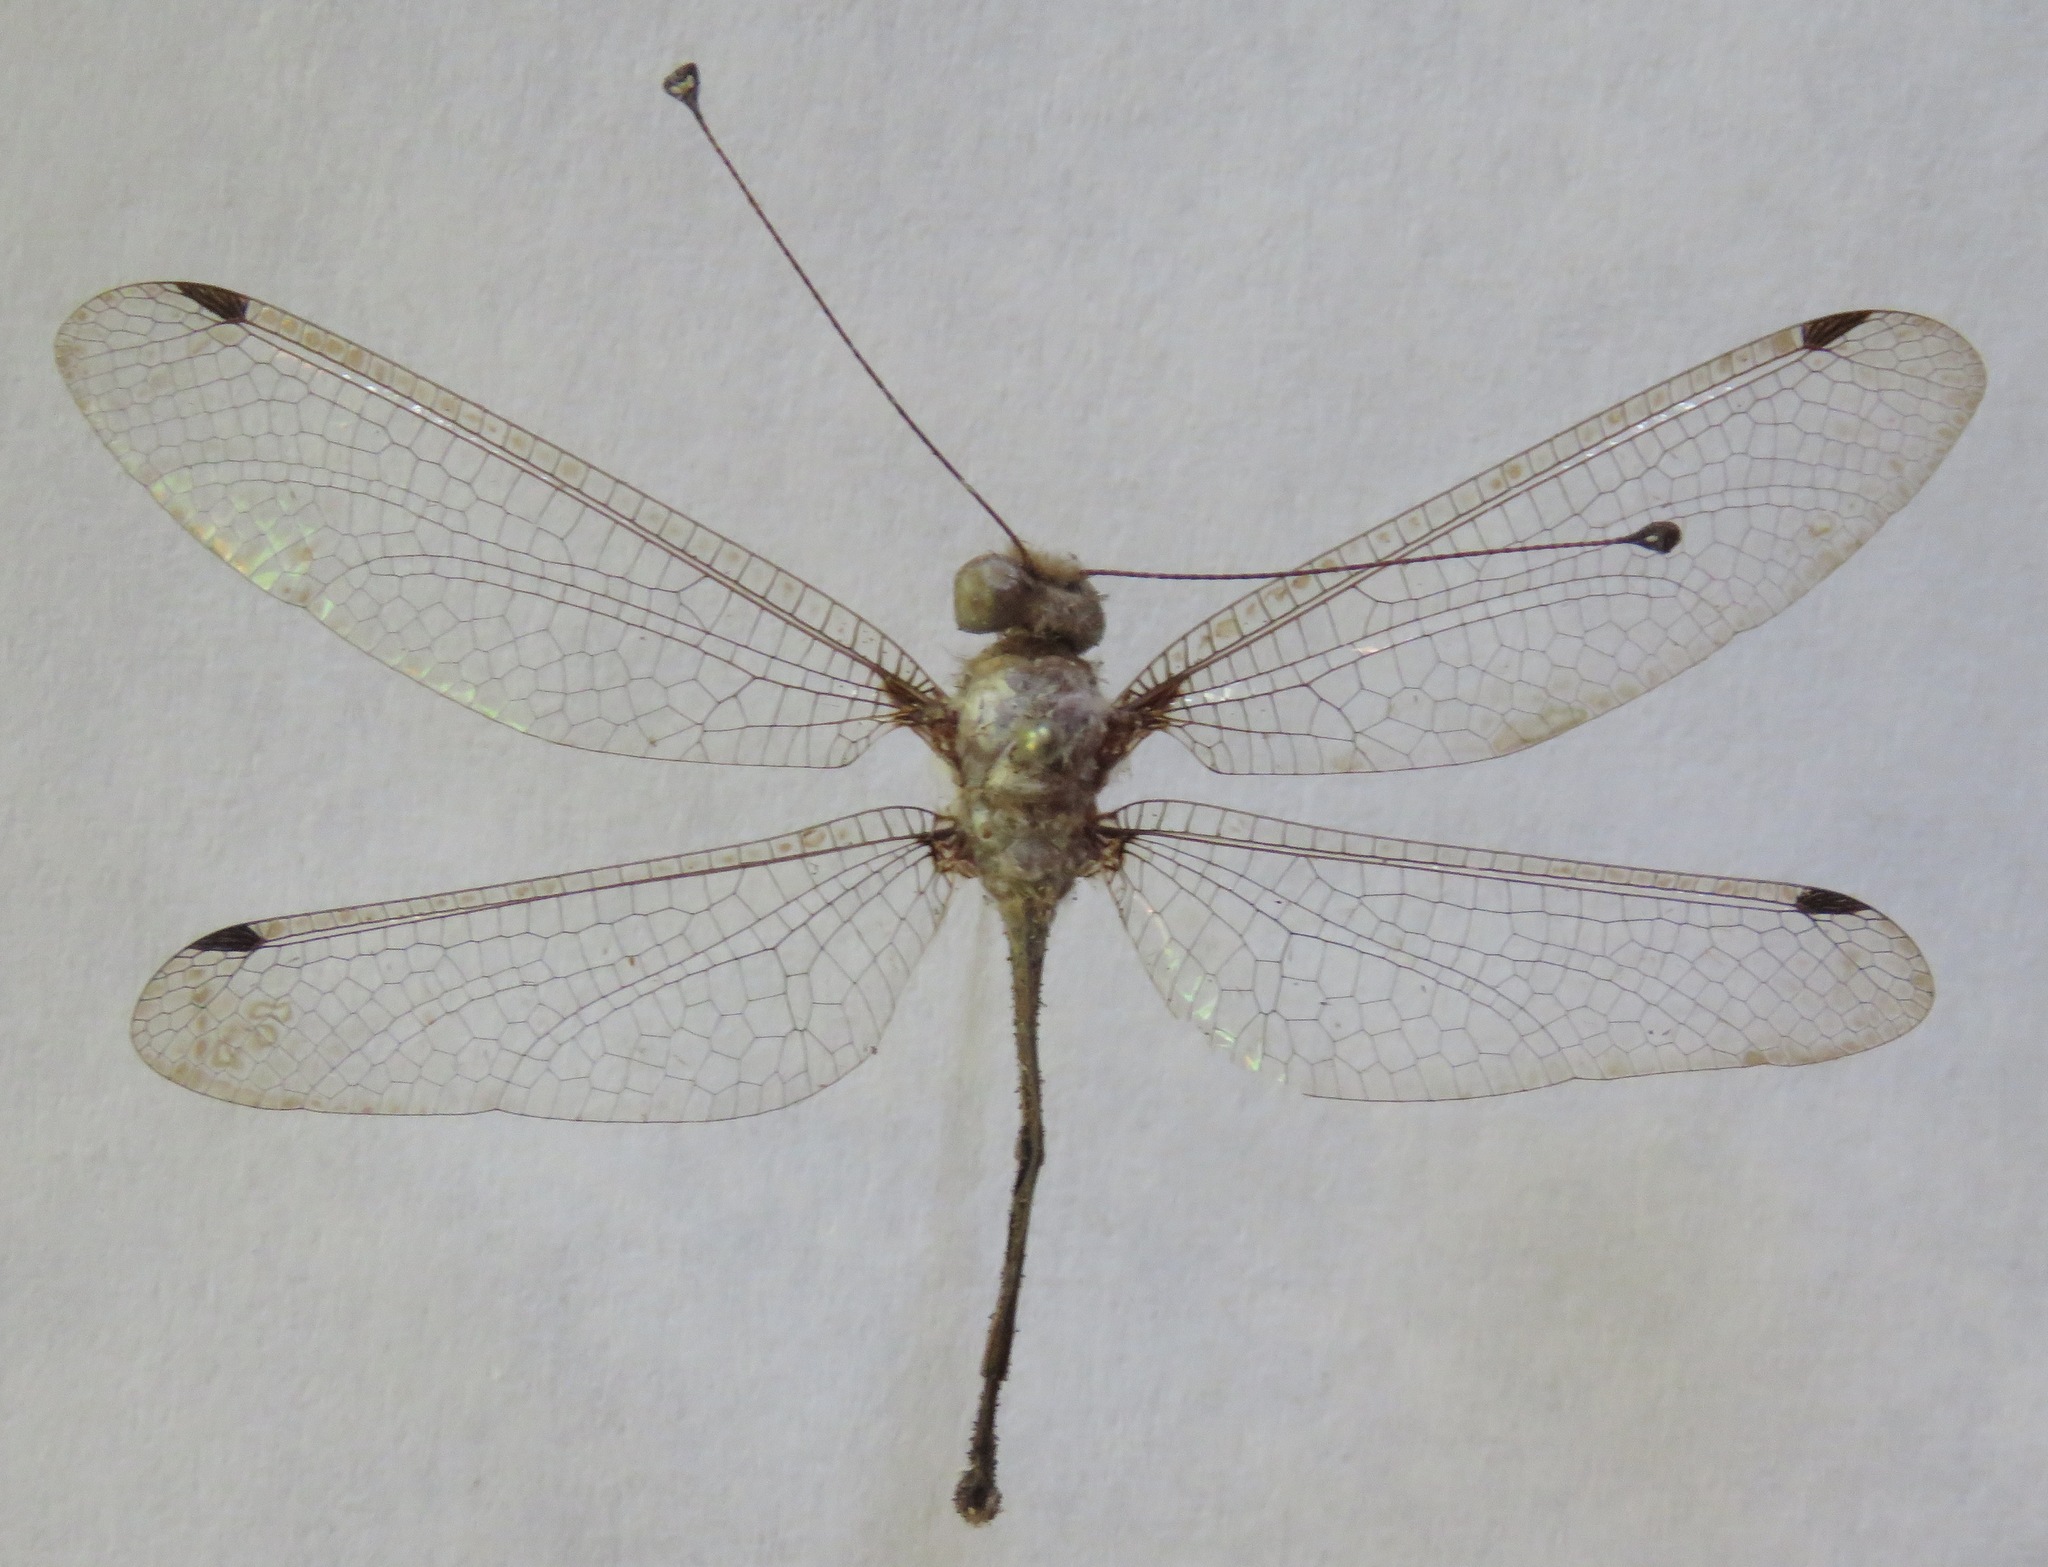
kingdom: Animalia
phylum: Arthropoda
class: Insecta
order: Neuroptera
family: Ascalaphidae
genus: Amoea
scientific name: Amoea vacua
